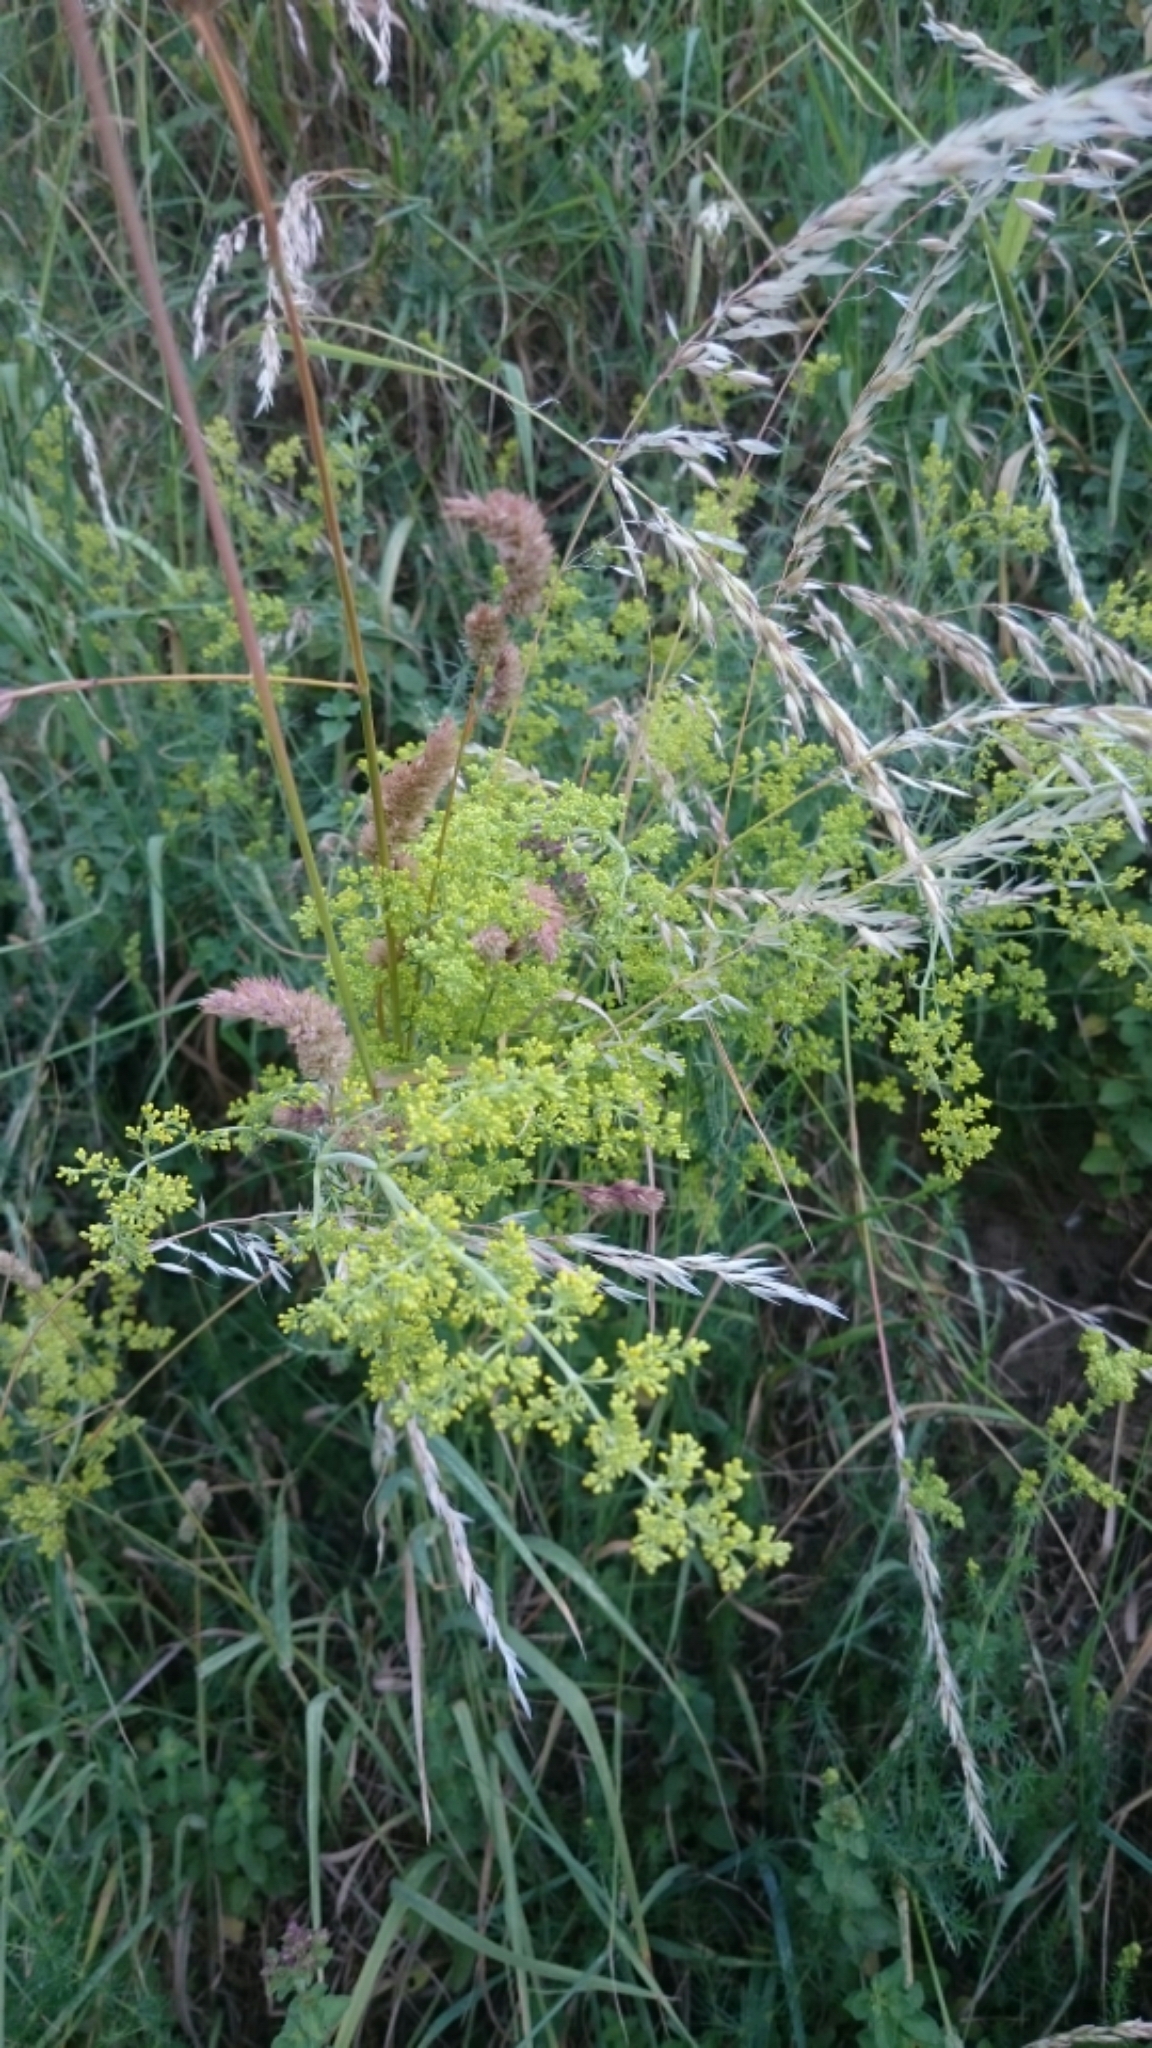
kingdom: Plantae
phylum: Tracheophyta
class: Magnoliopsida
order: Gentianales
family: Rubiaceae
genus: Galium
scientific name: Galium verum
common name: Lady's bedstraw
